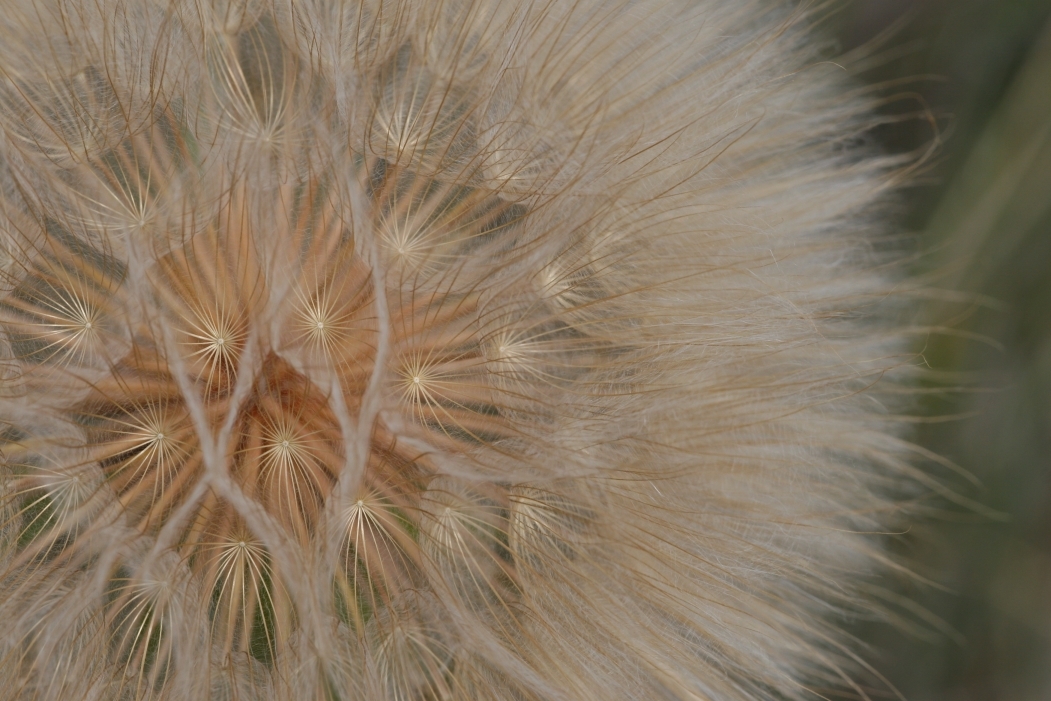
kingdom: Plantae
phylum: Tracheophyta
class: Magnoliopsida
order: Asterales
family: Asteraceae
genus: Tragopogon
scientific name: Tragopogon dubius
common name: Yellow salsify
